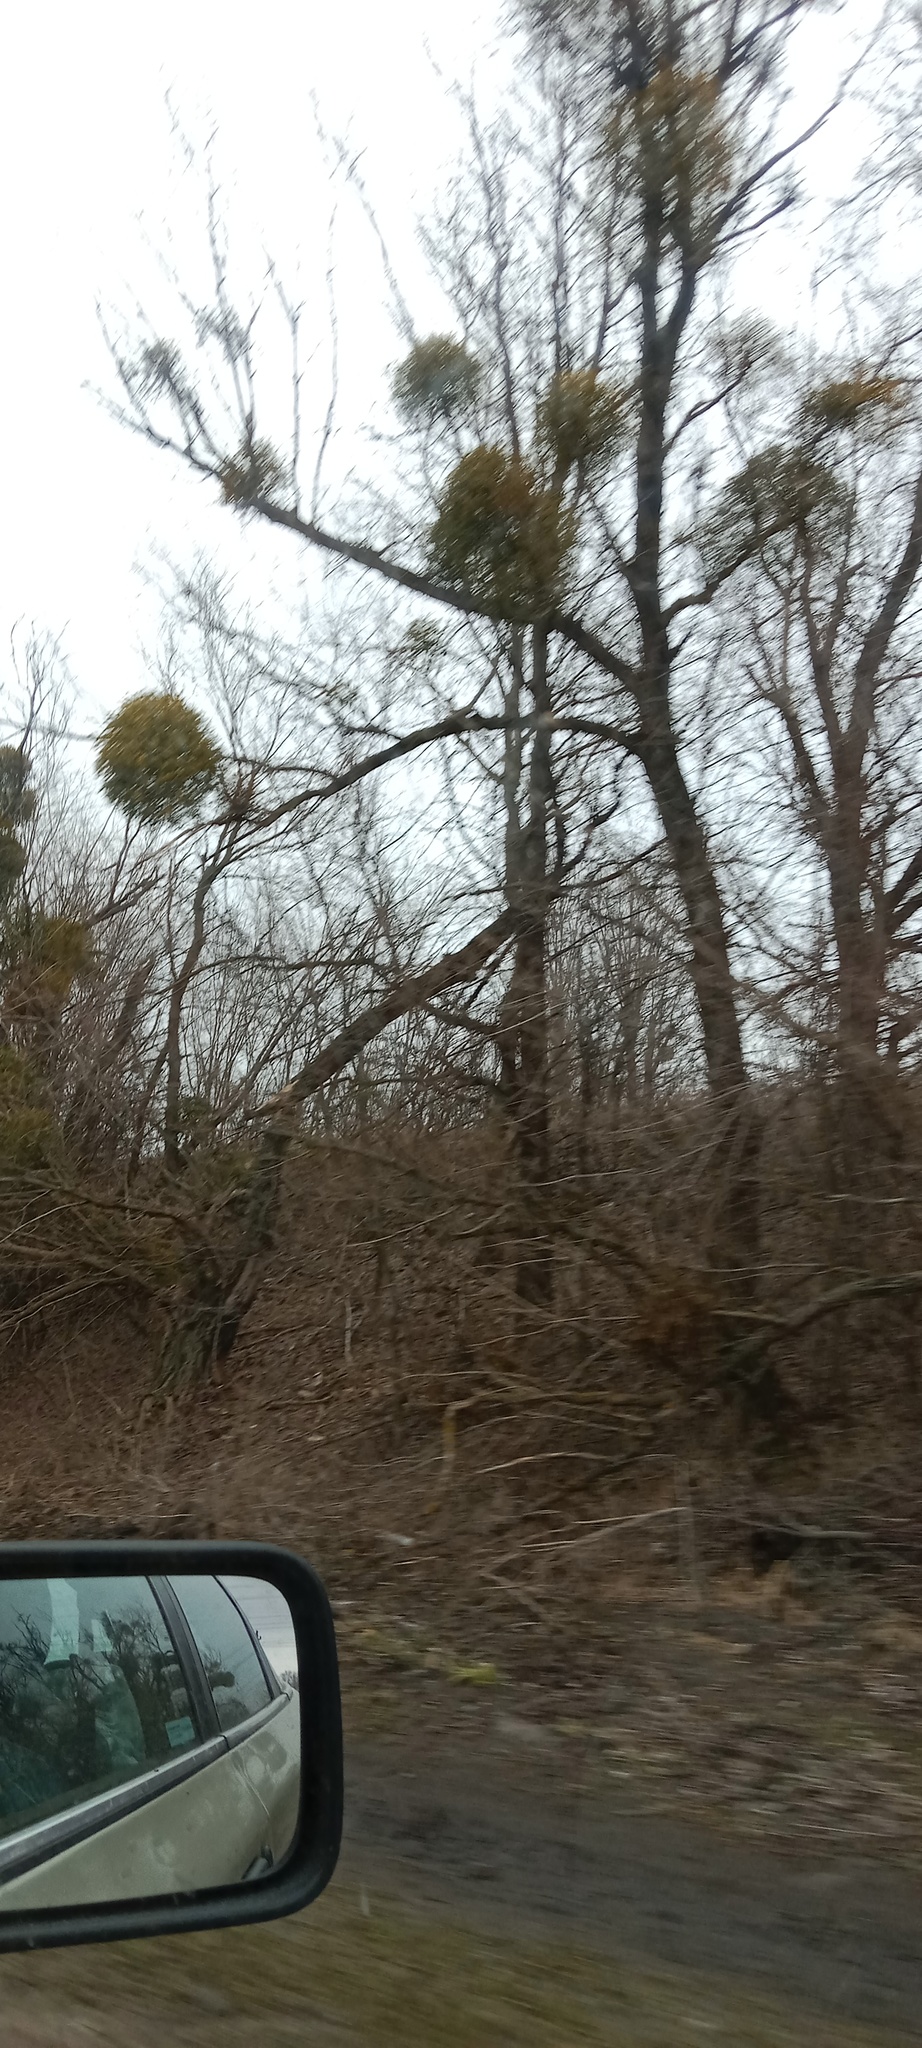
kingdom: Plantae
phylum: Tracheophyta
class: Magnoliopsida
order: Santalales
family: Viscaceae
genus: Viscum
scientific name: Viscum album
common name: Mistletoe
